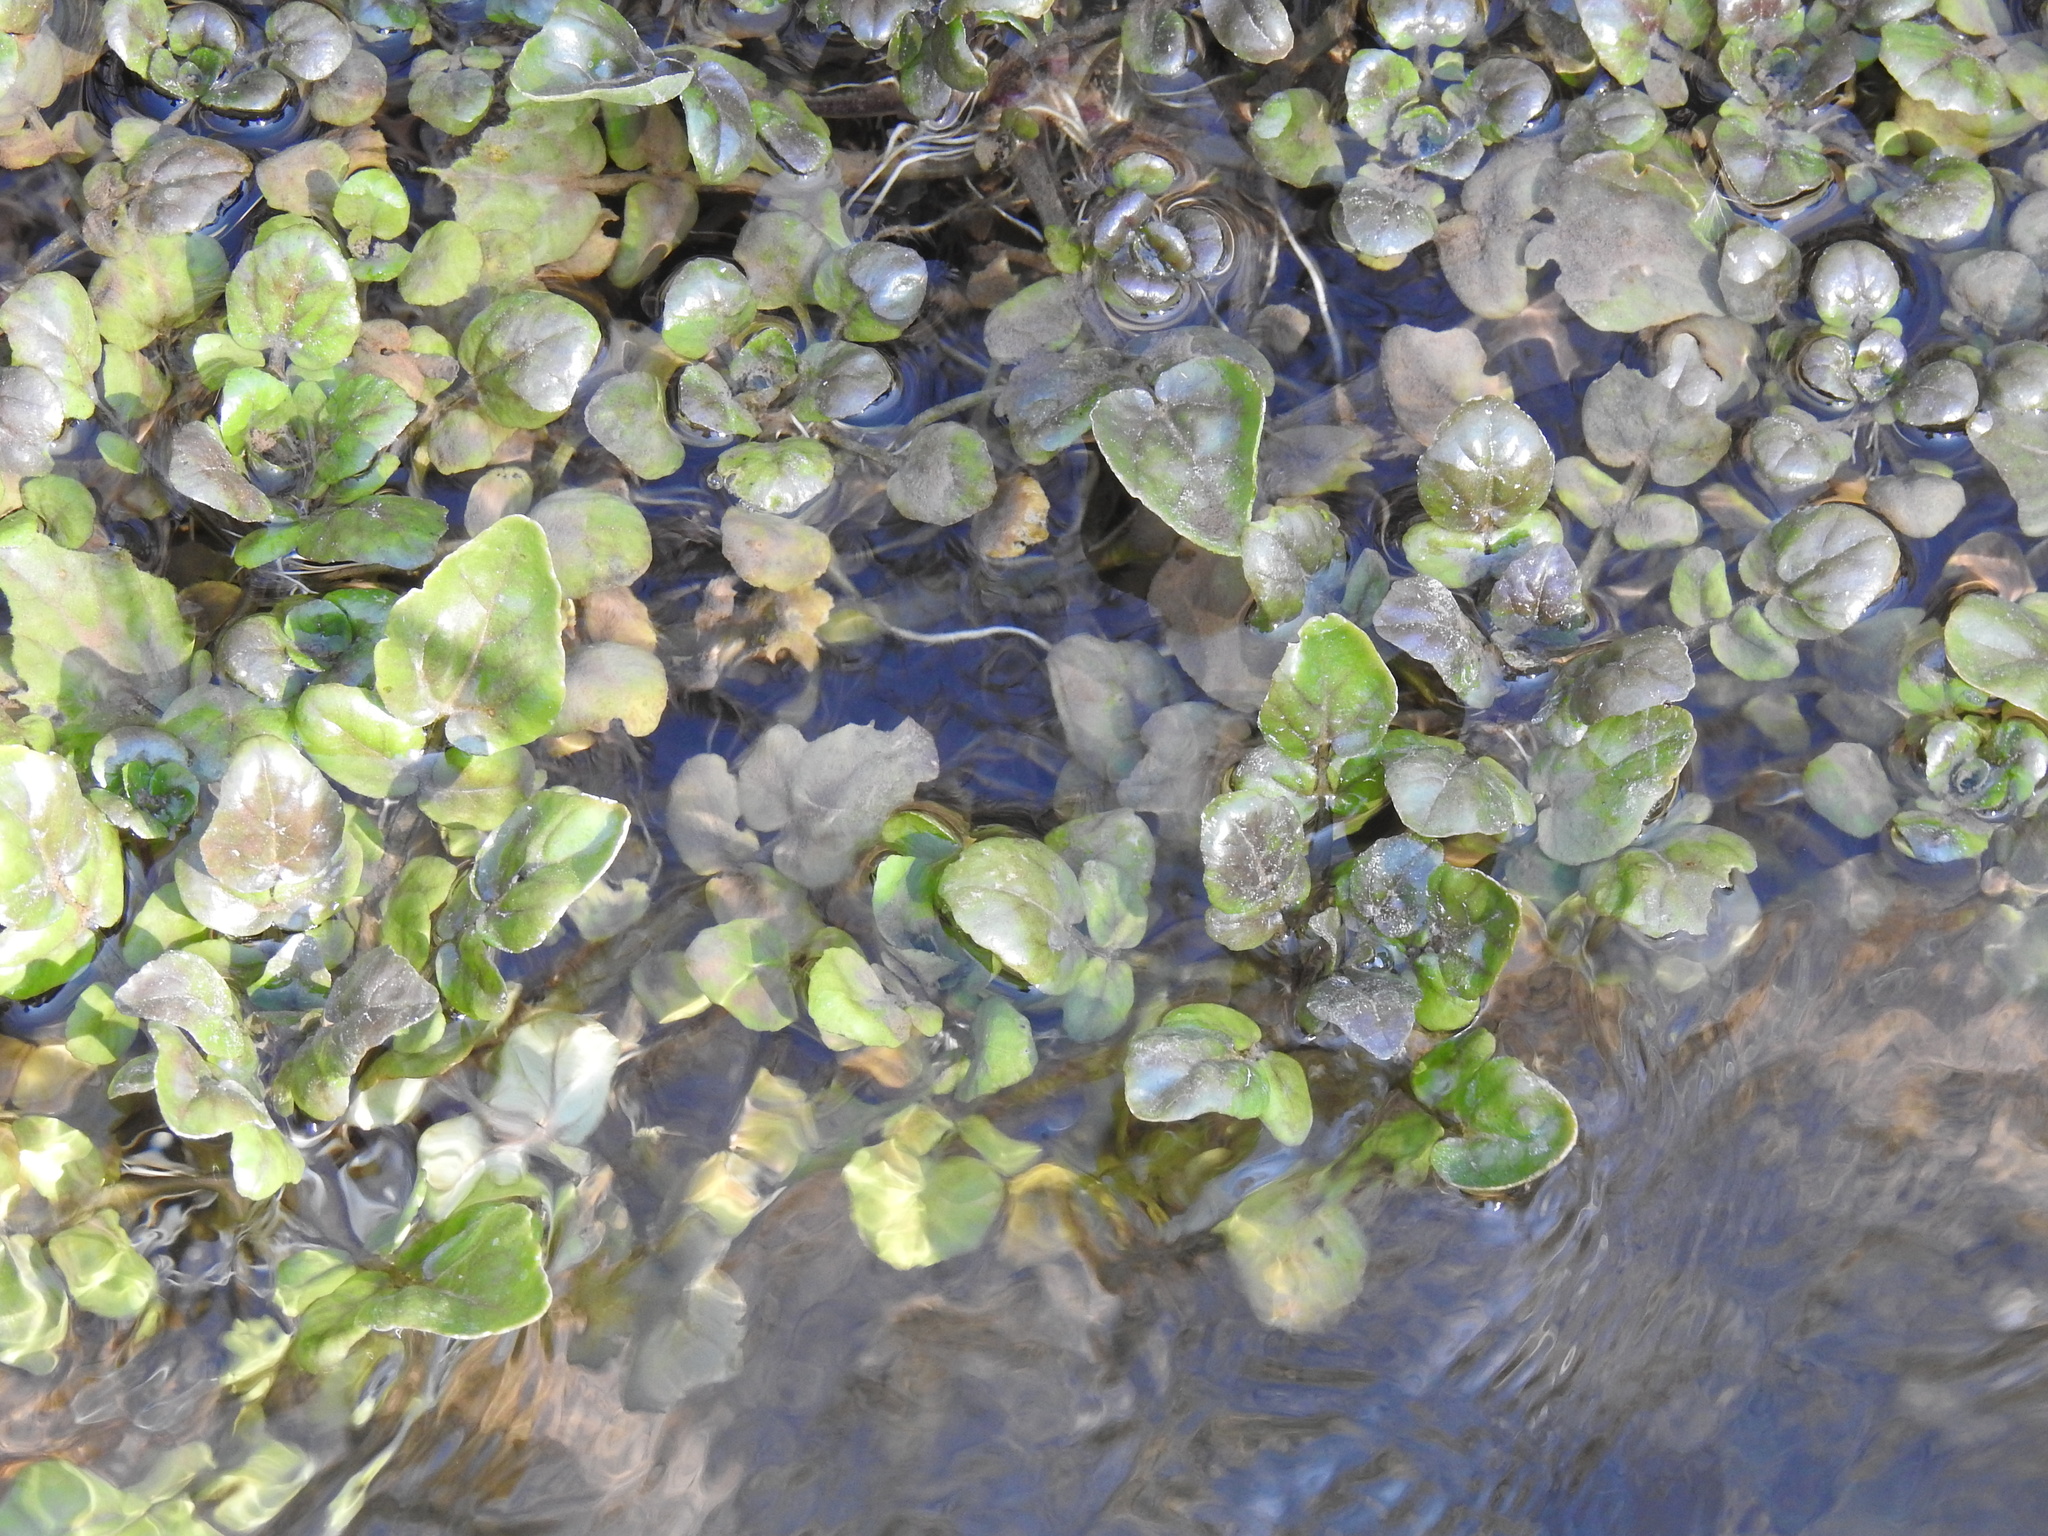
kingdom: Plantae
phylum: Tracheophyta
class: Magnoliopsida
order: Brassicales
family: Brassicaceae
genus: Nasturtium
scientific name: Nasturtium officinale
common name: Watercress
